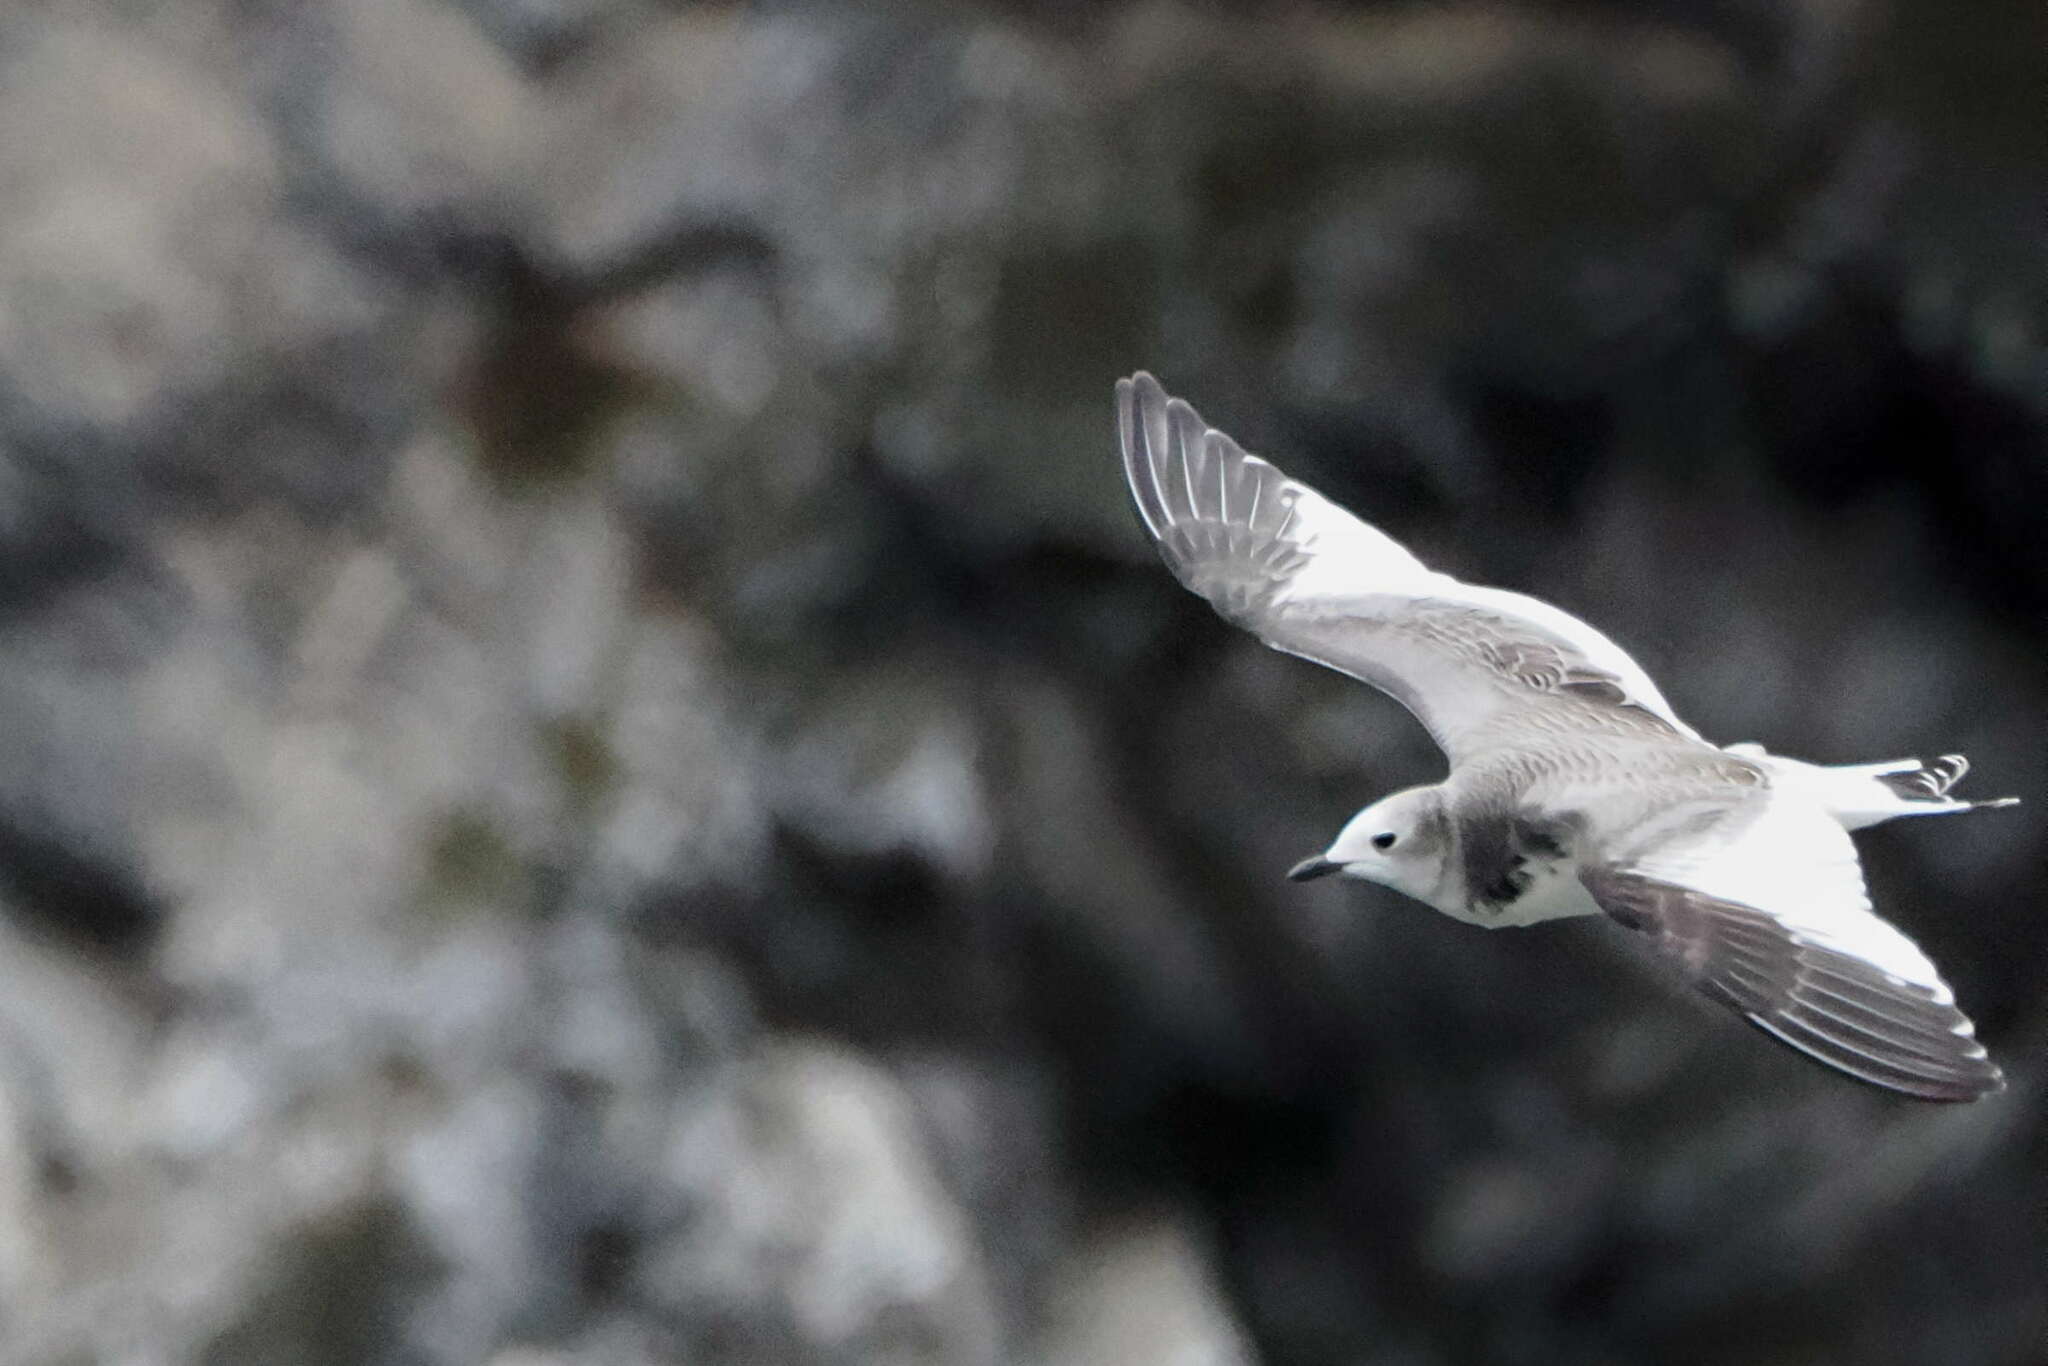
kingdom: Animalia
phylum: Chordata
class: Aves
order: Charadriiformes
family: Laridae
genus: Xema
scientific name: Xema sabini
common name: Sabine's gull
